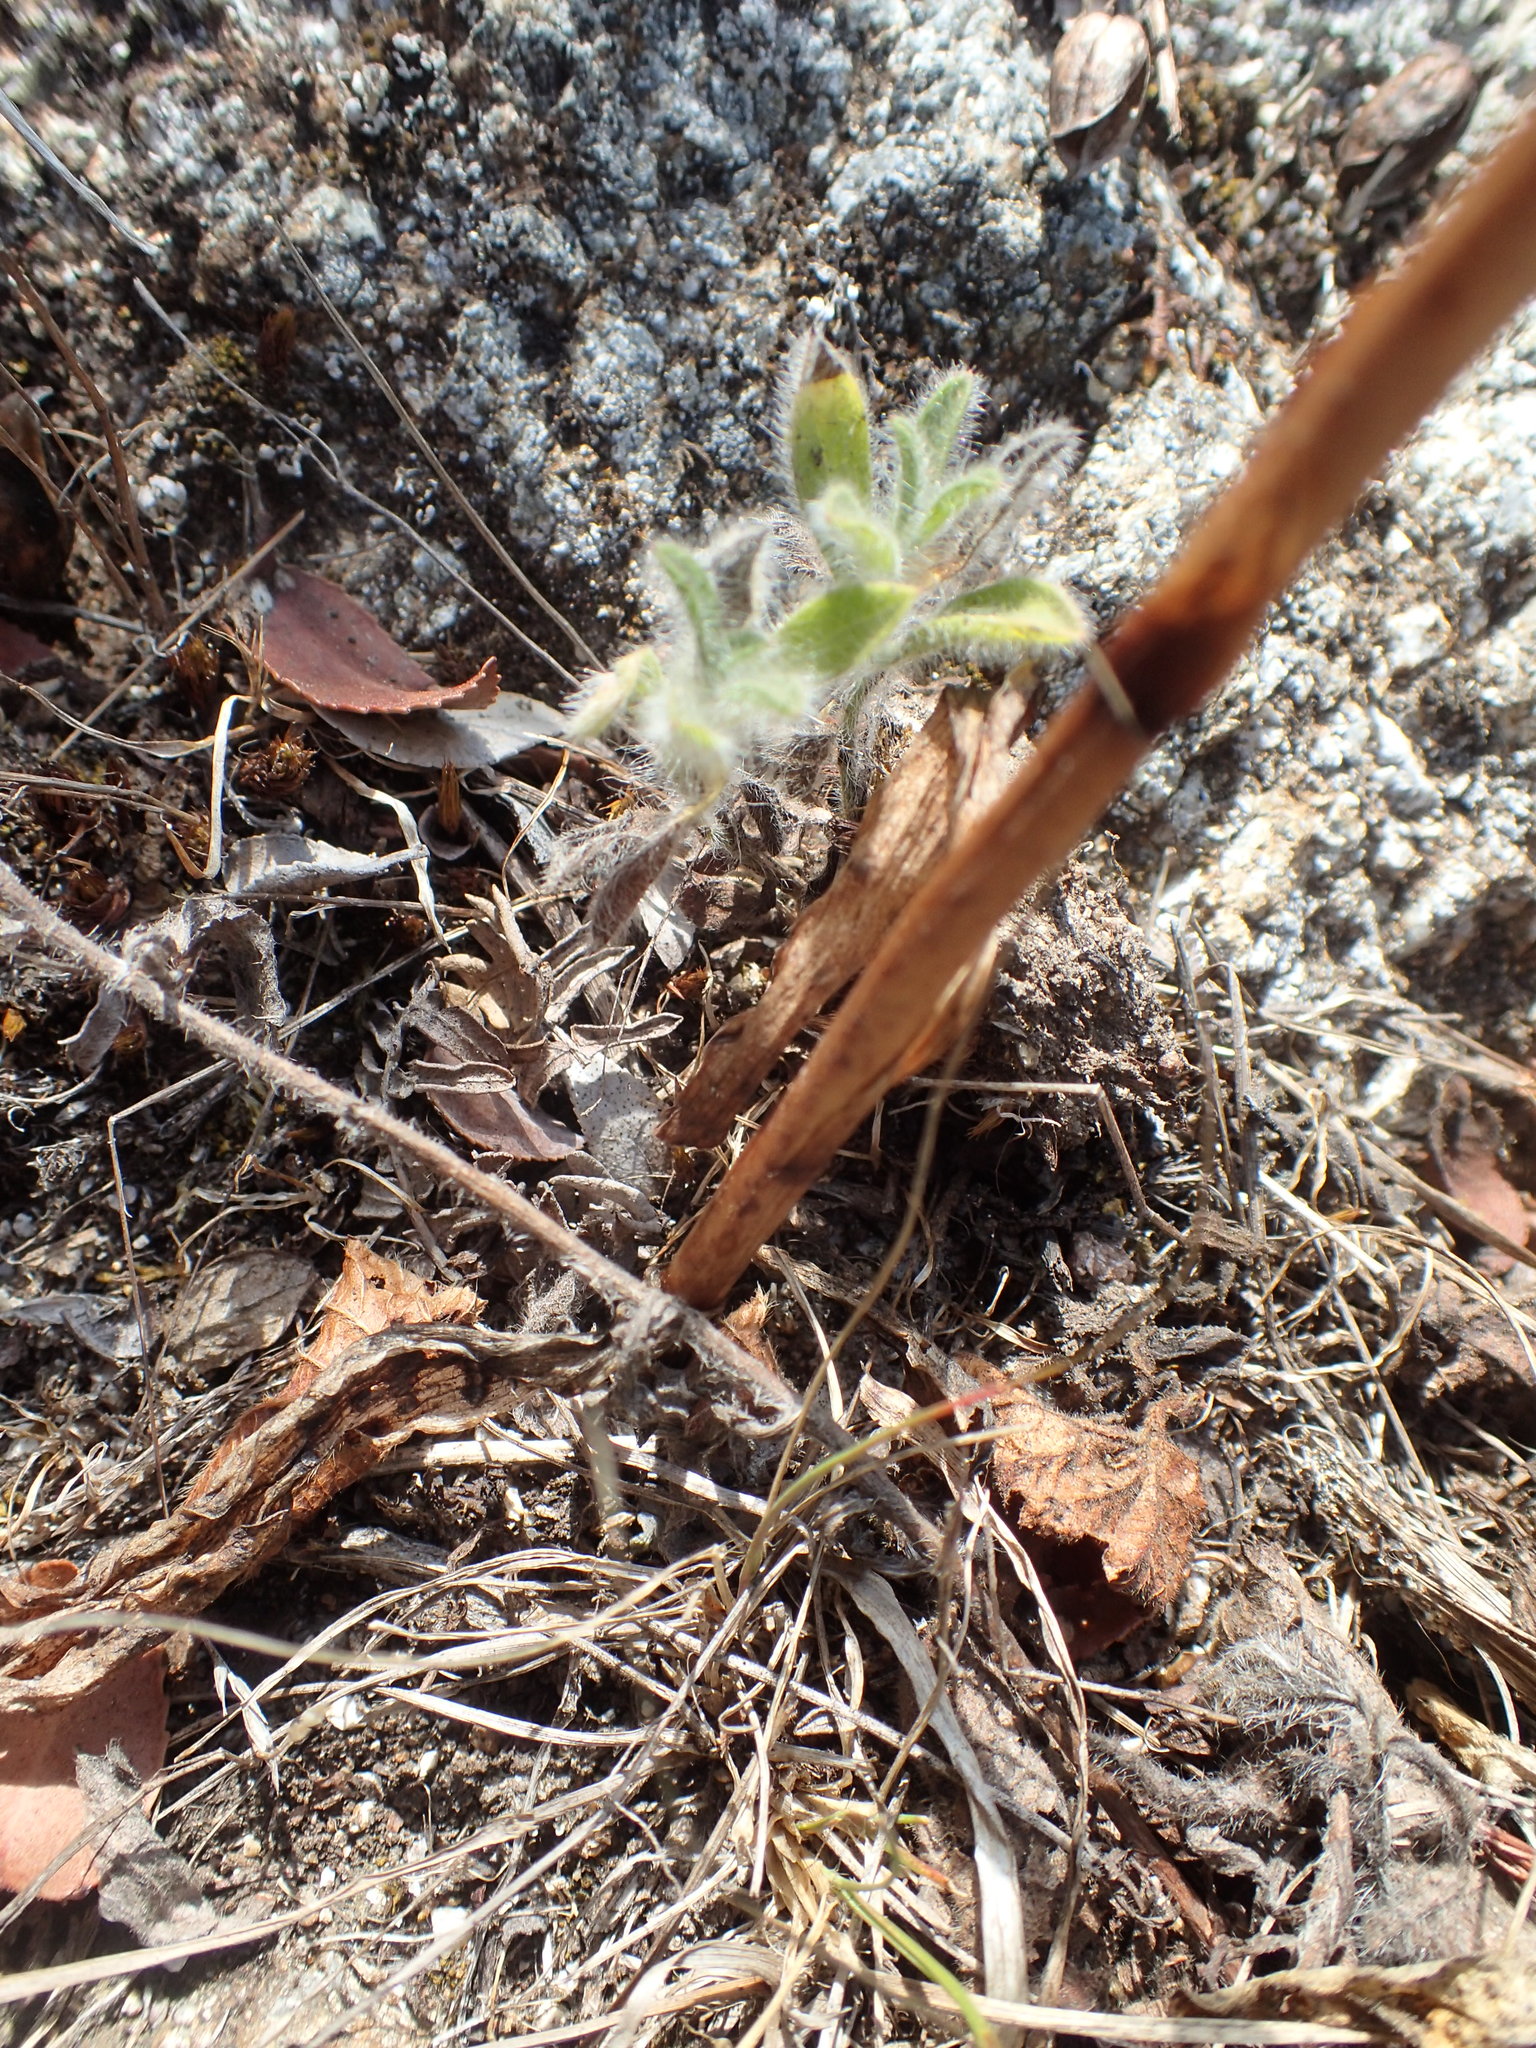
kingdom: Plantae
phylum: Tracheophyta
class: Liliopsida
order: Asparagales
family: Orchidaceae
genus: Platanthera
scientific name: Platanthera elegans
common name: Coast piperia
